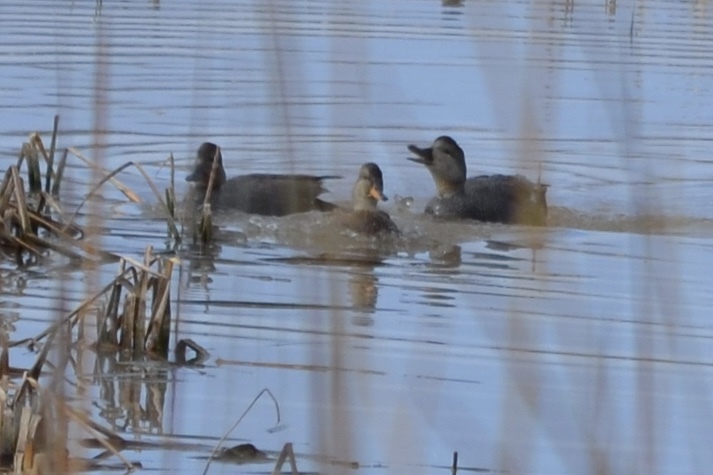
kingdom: Animalia
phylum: Chordata
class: Aves
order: Anseriformes
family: Anatidae
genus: Mareca
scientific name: Mareca strepera
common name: Gadwall
